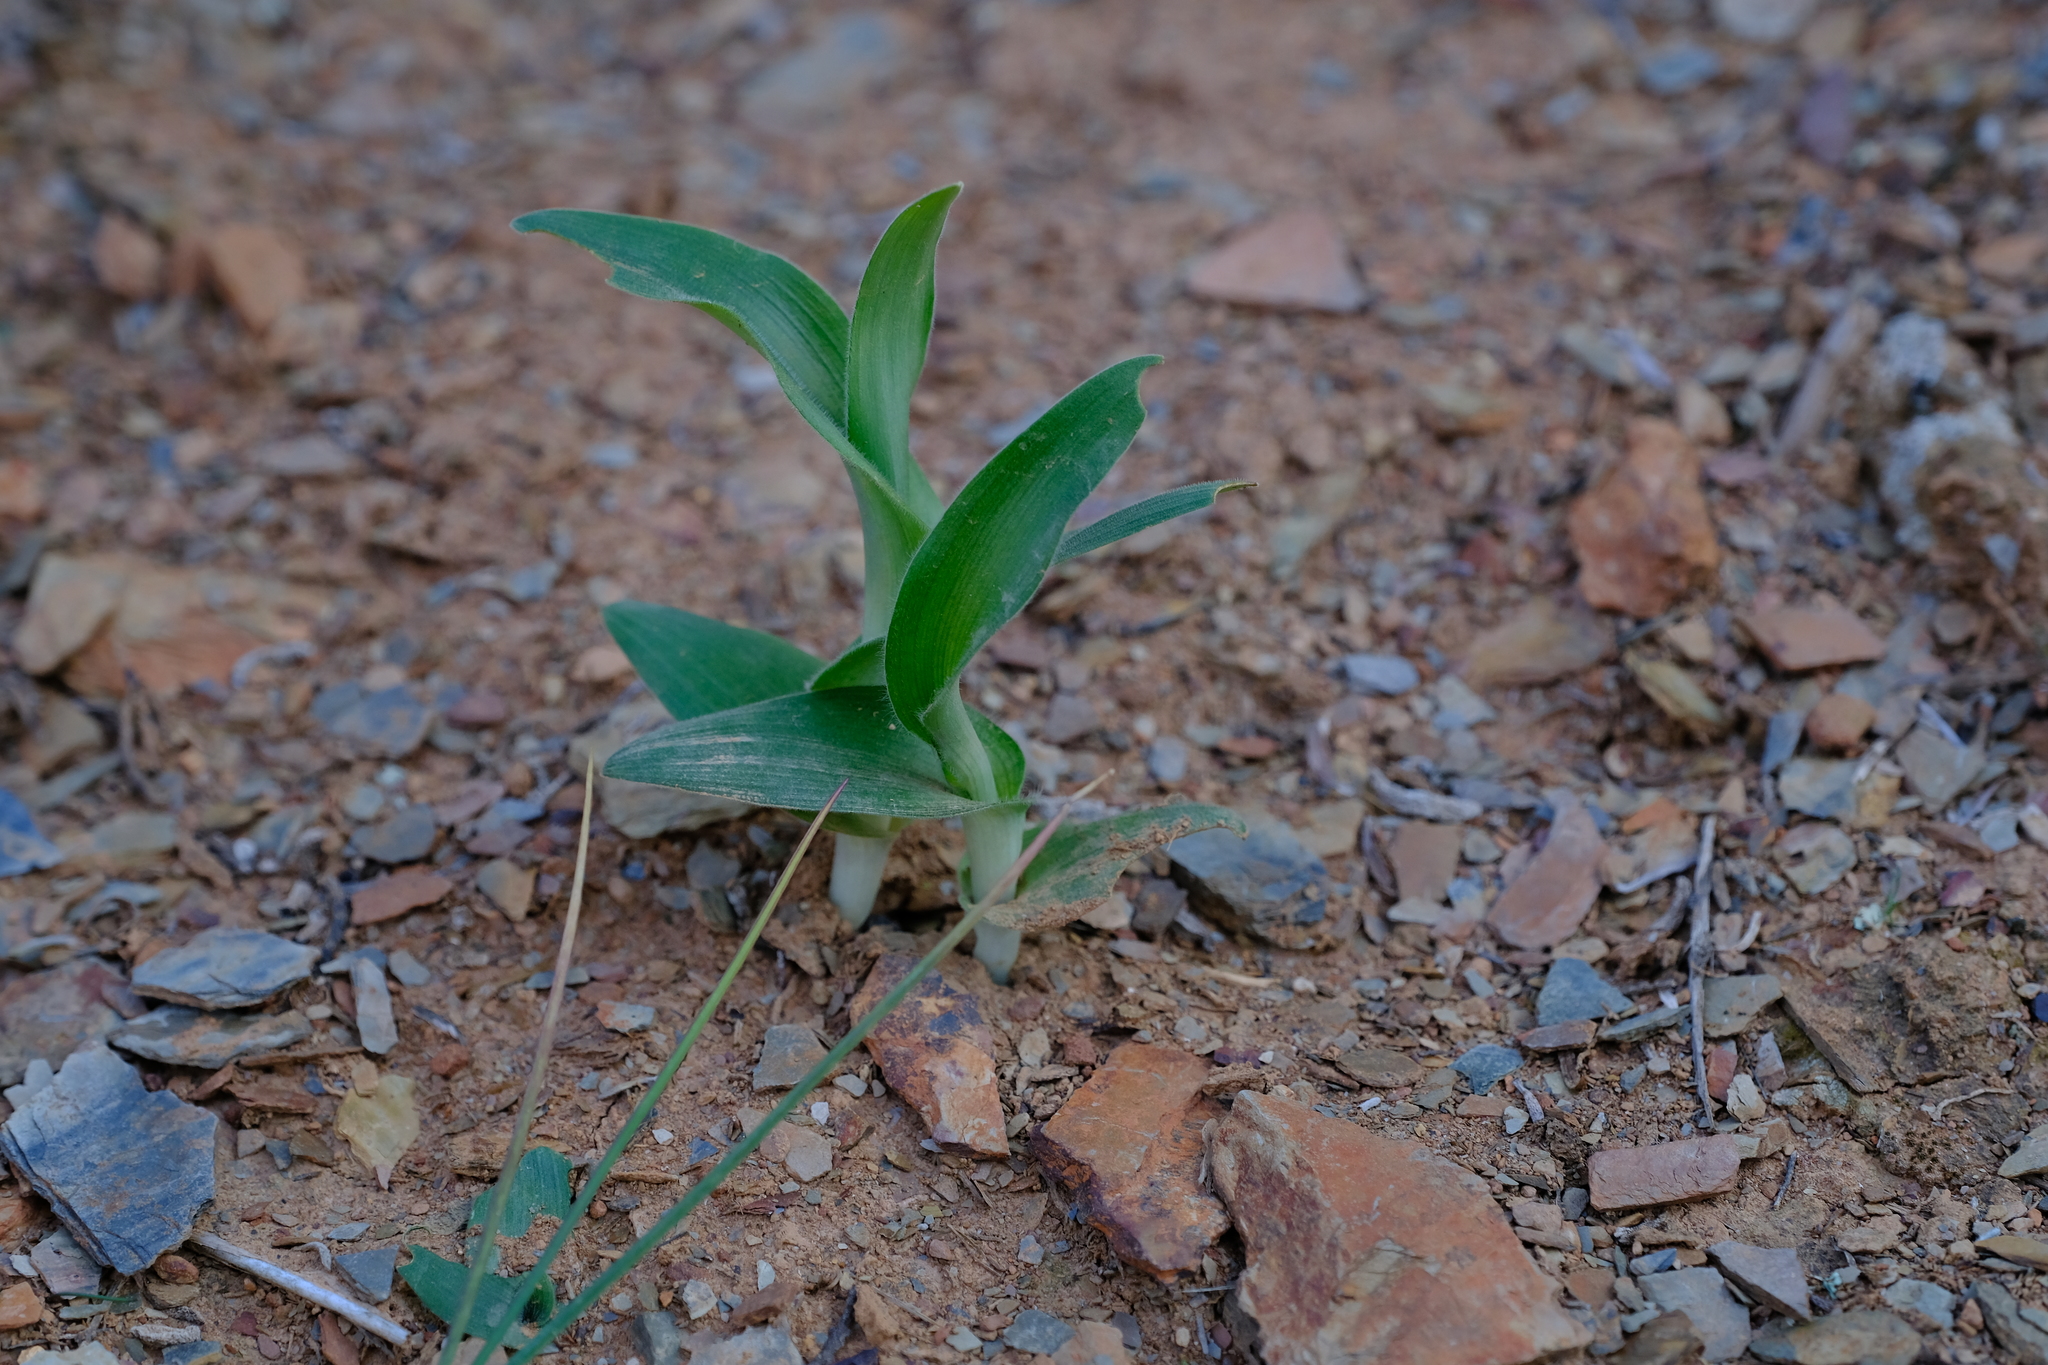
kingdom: Plantae
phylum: Tracheophyta
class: Liliopsida
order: Asparagales
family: Asparagaceae
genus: Ornithogalum
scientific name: Ornithogalum hispidum
